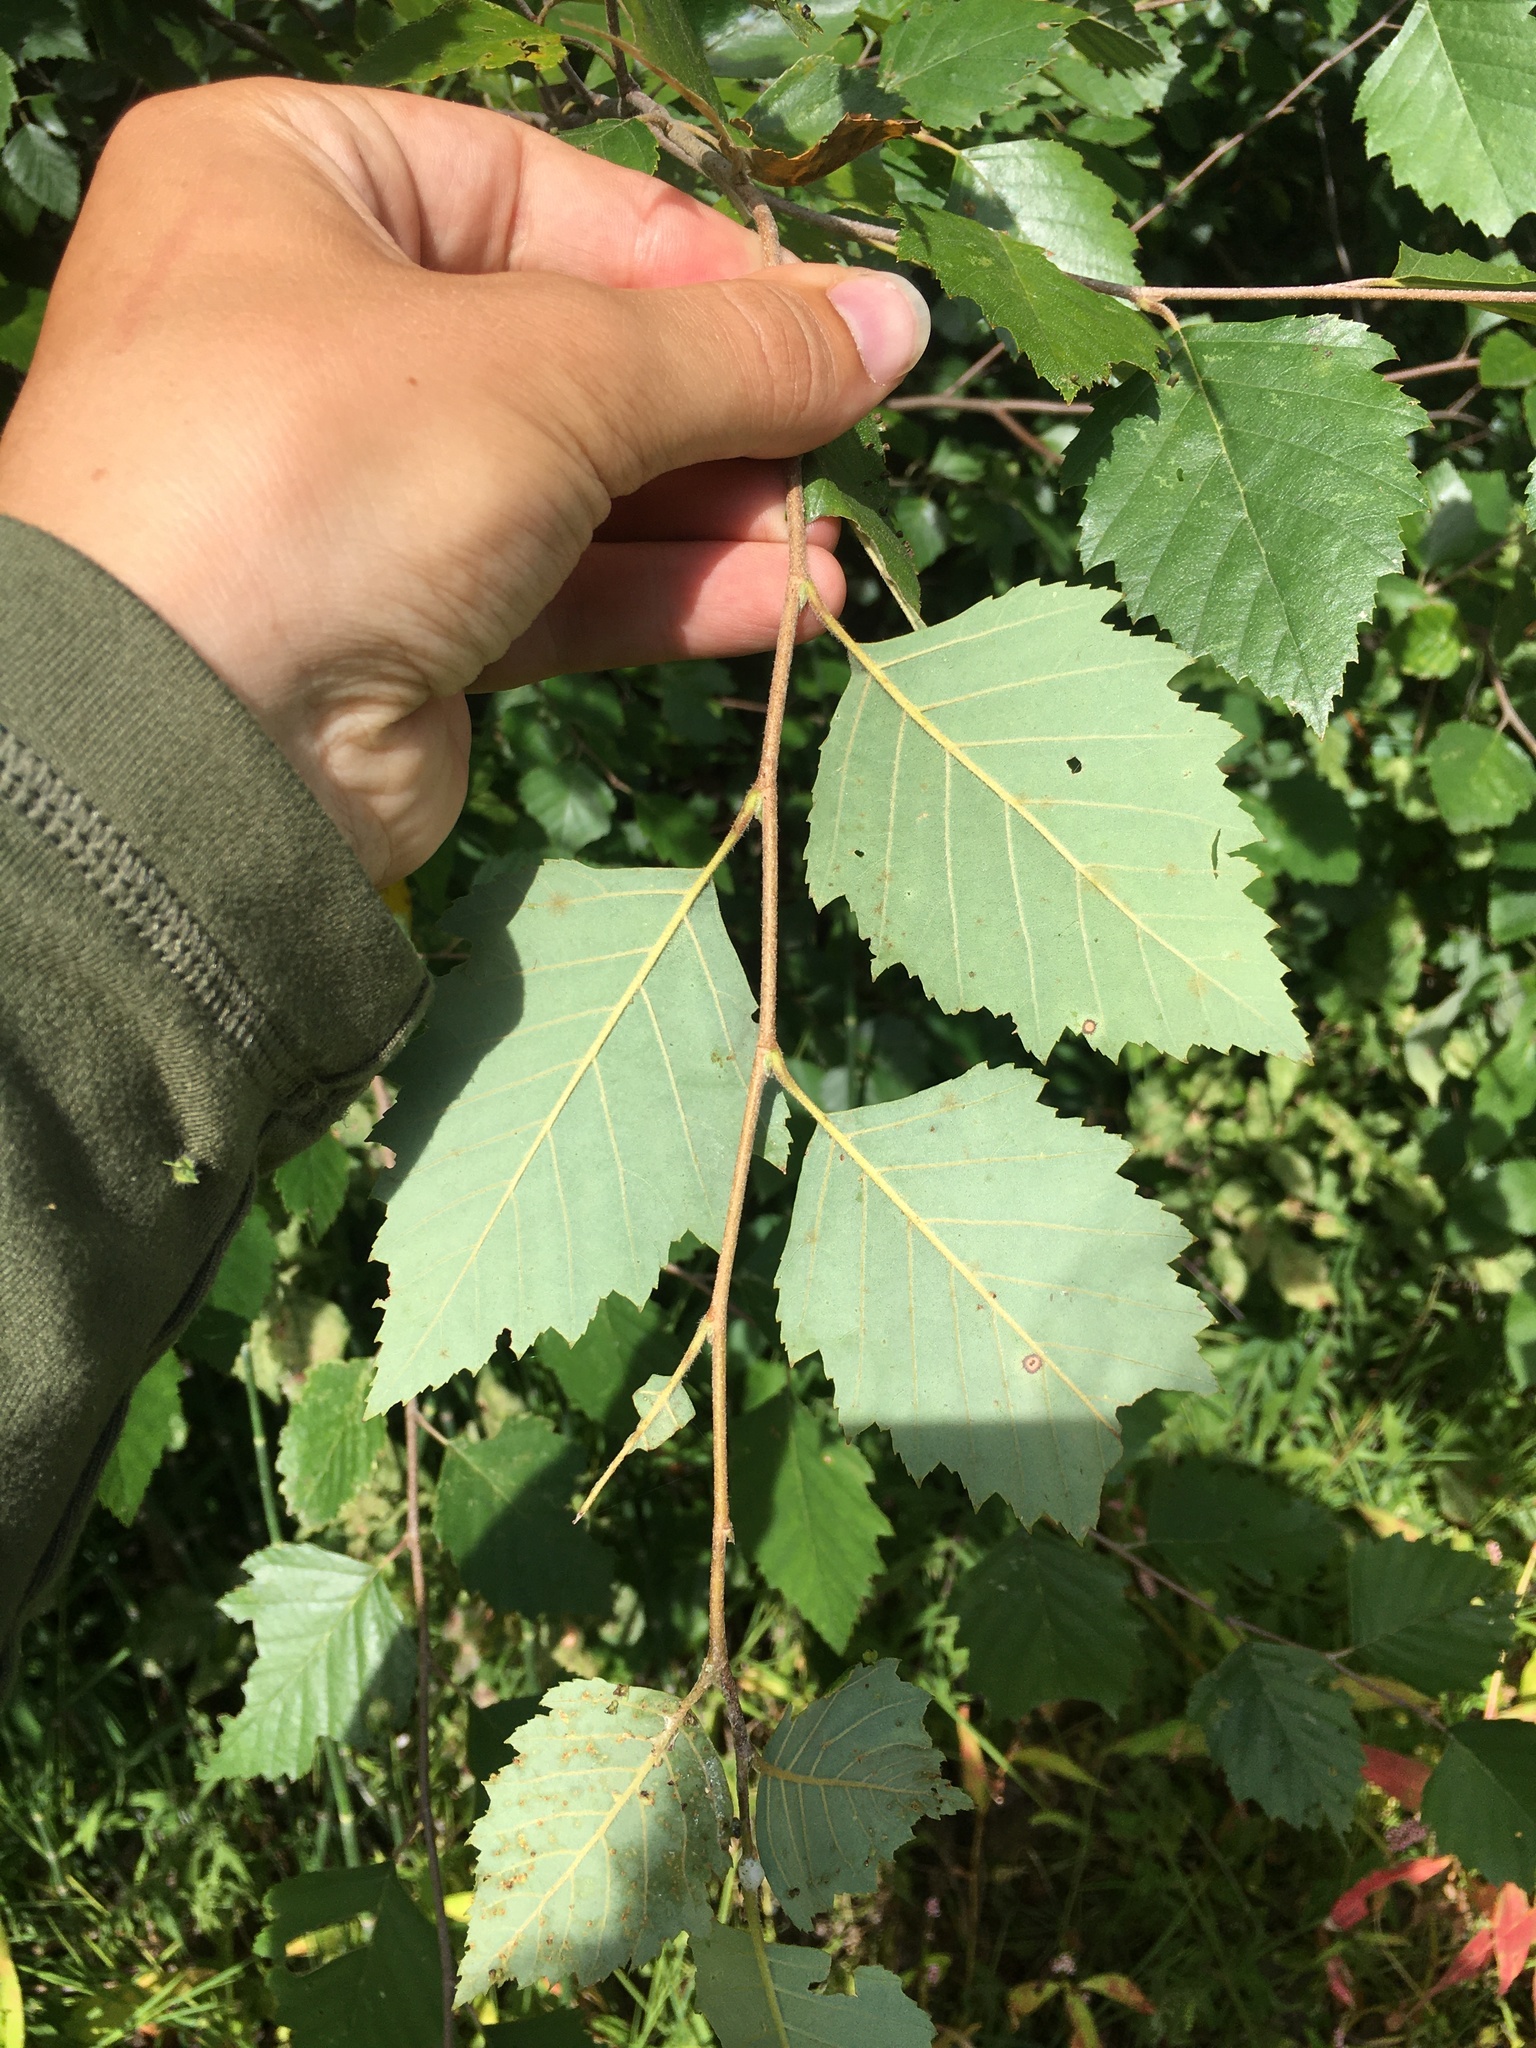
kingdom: Plantae
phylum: Tracheophyta
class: Magnoliopsida
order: Fagales
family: Betulaceae
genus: Betula
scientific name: Betula nigra
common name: Black birch
